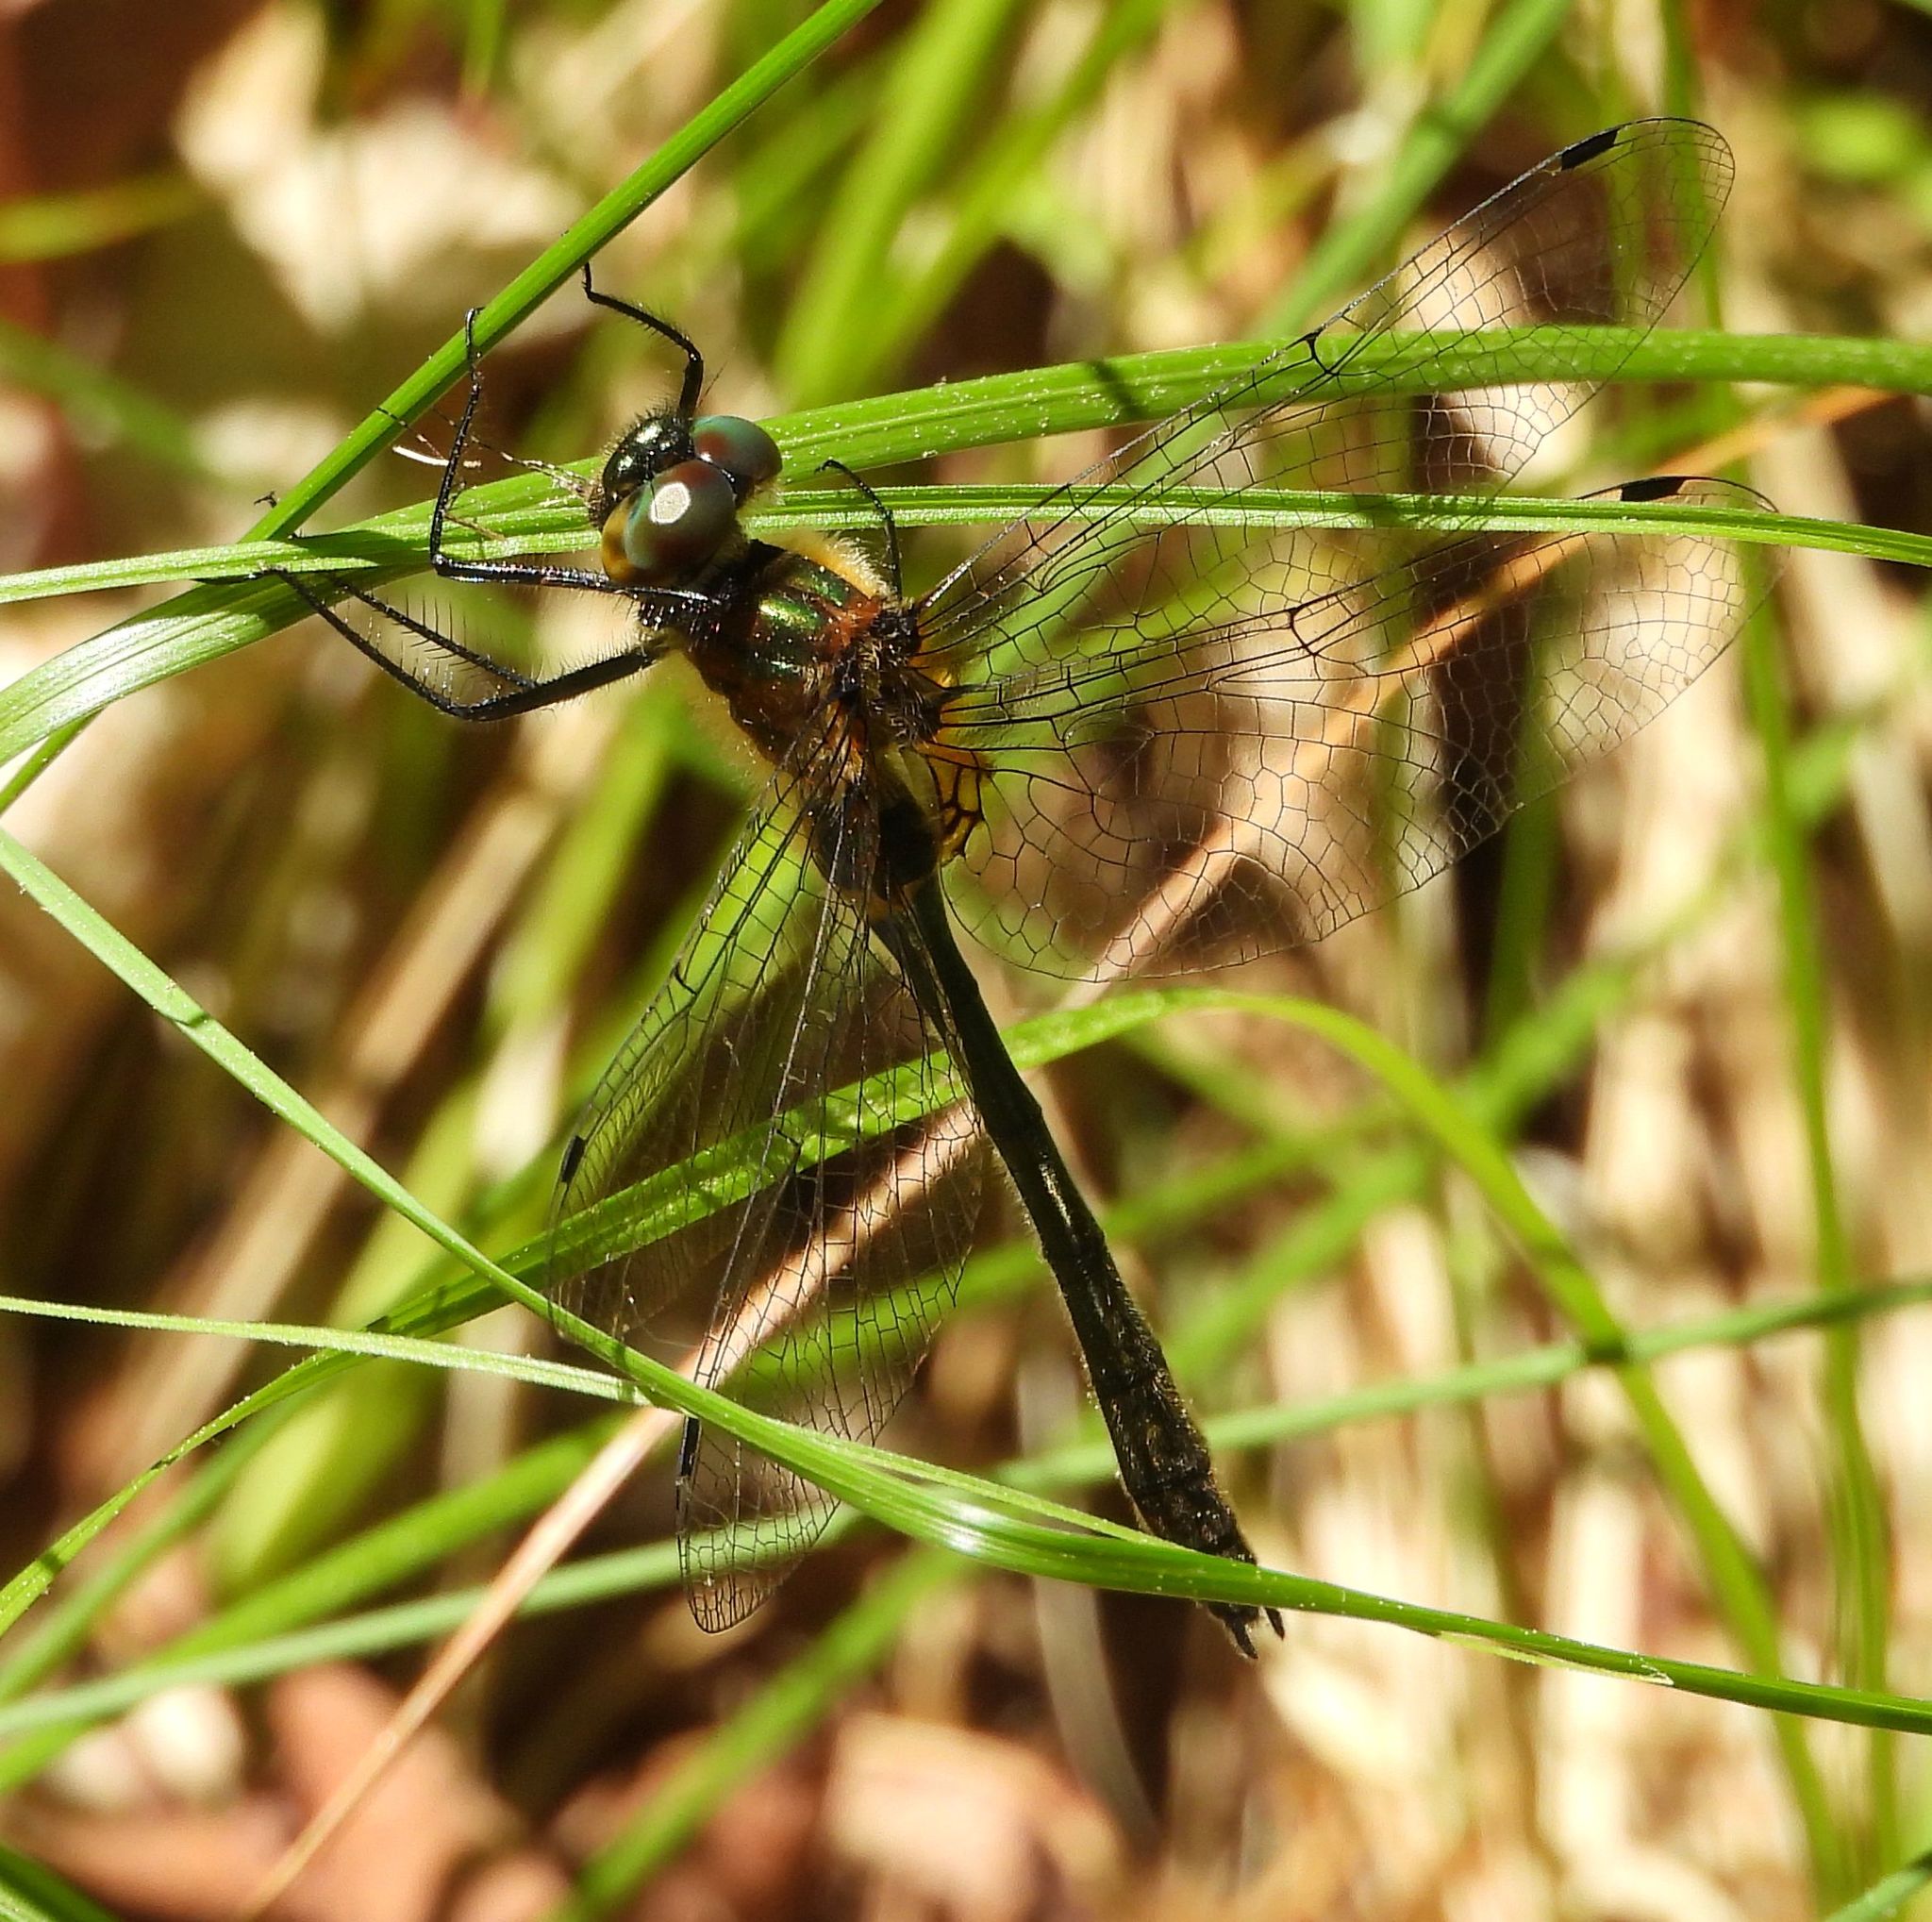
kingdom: Animalia
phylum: Arthropoda
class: Insecta
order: Odonata
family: Corduliidae
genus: Dorocordulia
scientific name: Dorocordulia libera
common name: Racket-tailed emerald
